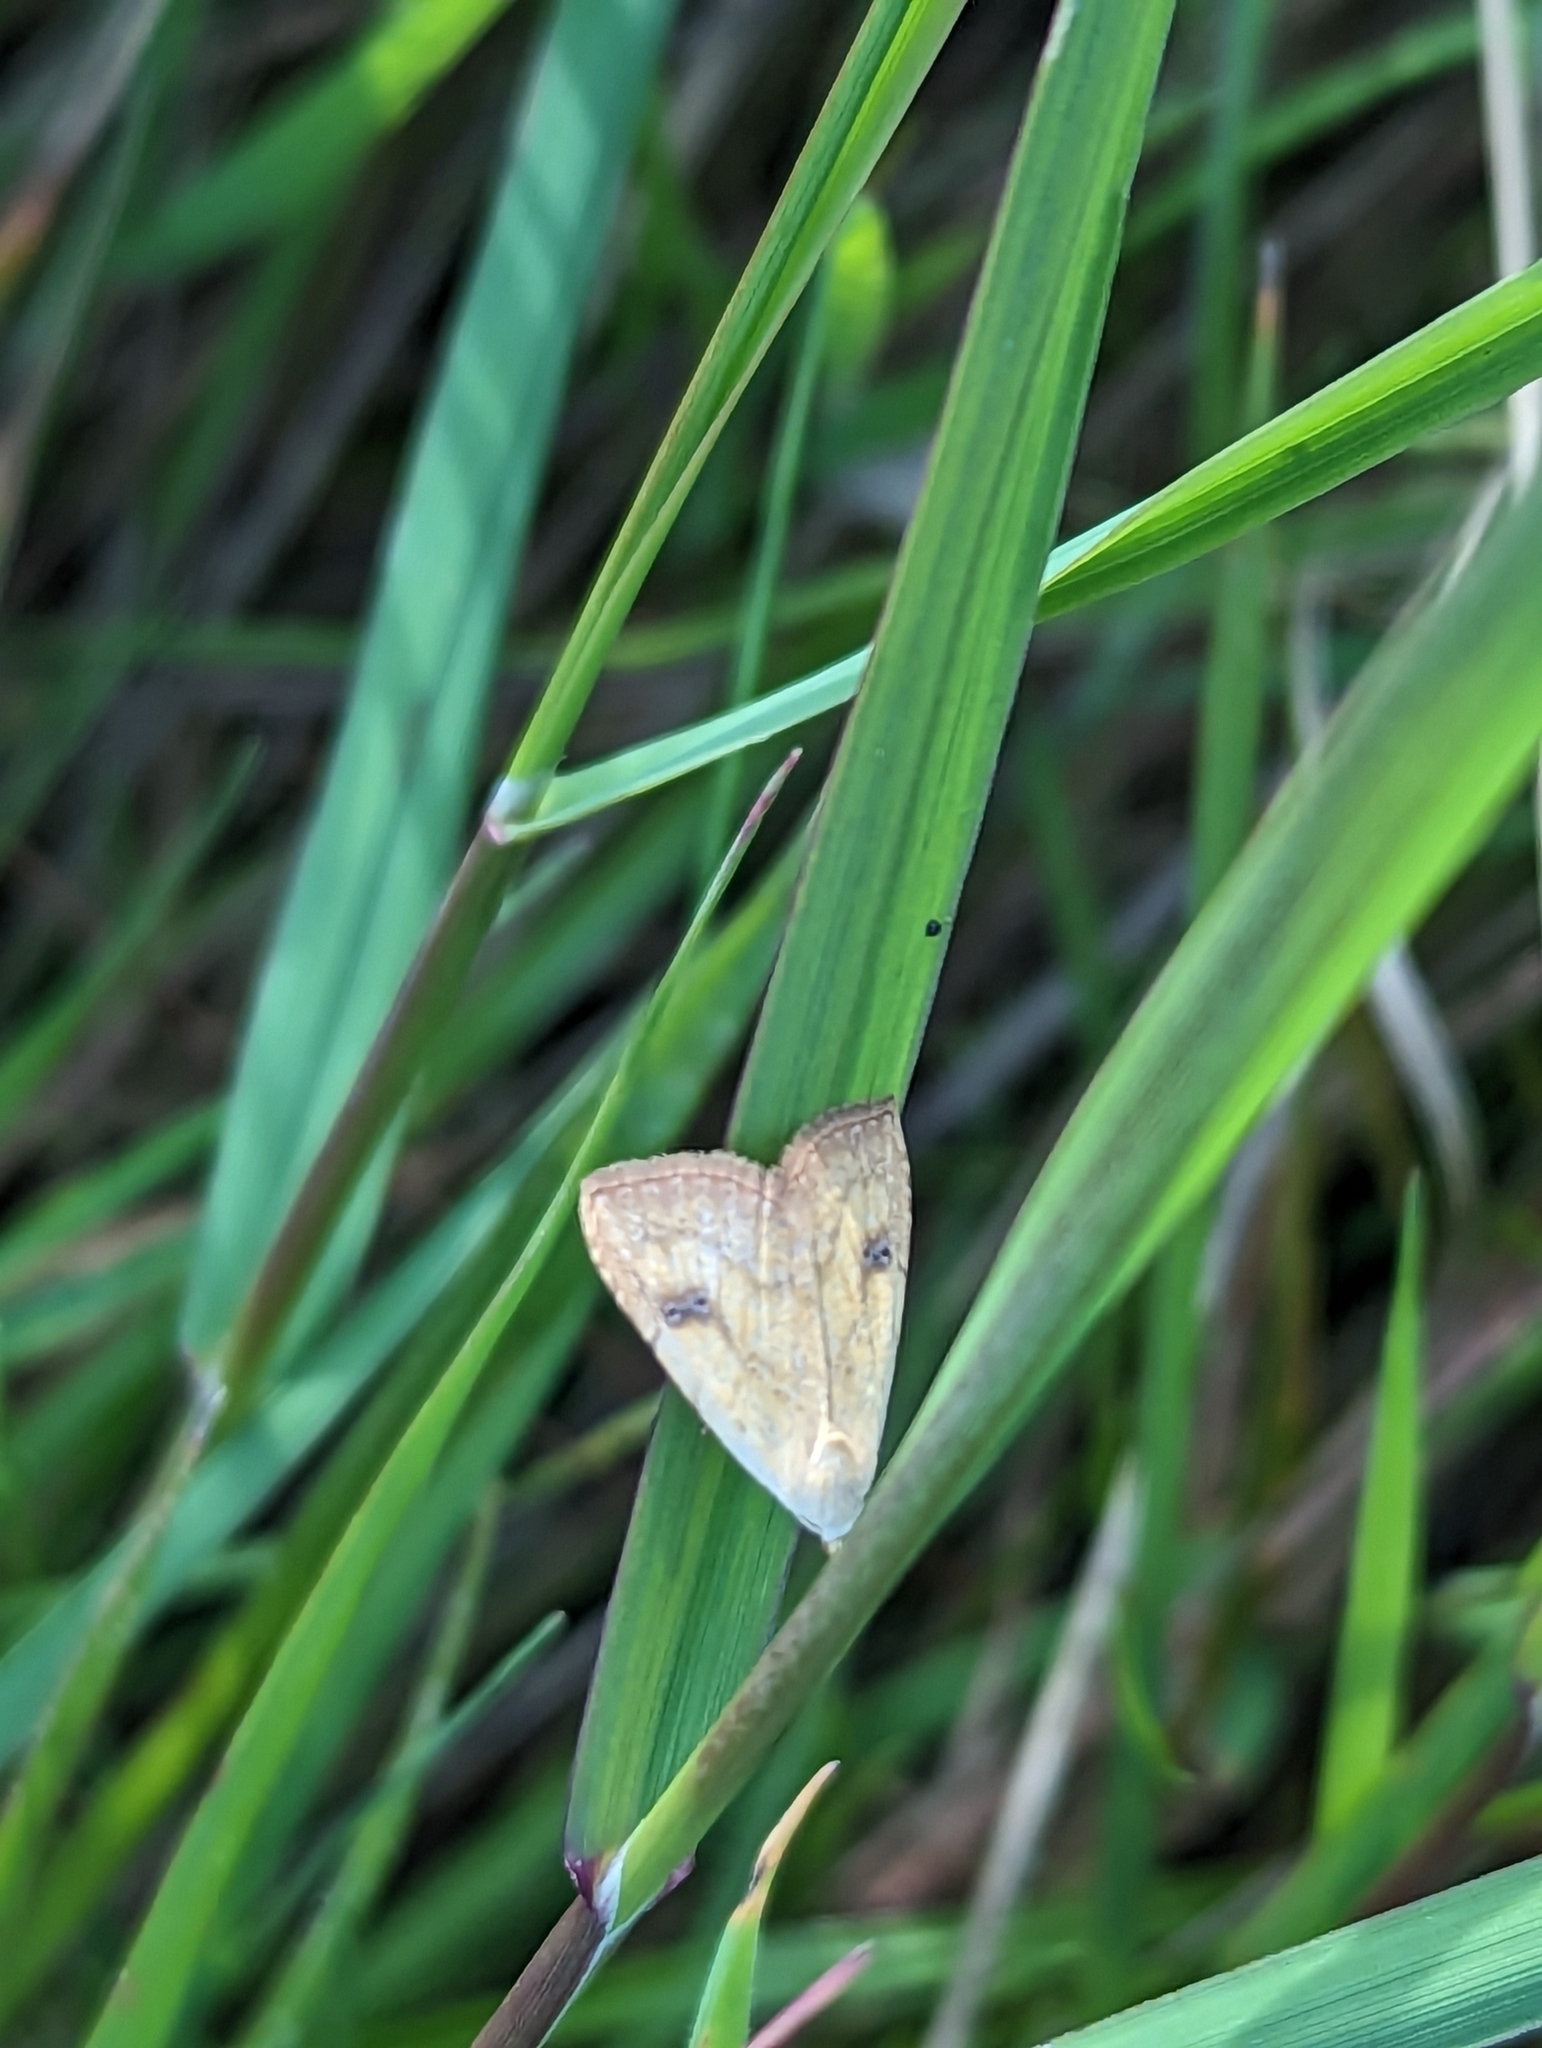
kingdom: Animalia
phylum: Arthropoda
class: Insecta
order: Lepidoptera
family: Erebidae
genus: Rivula
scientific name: Rivula sericealis
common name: Straw dot
